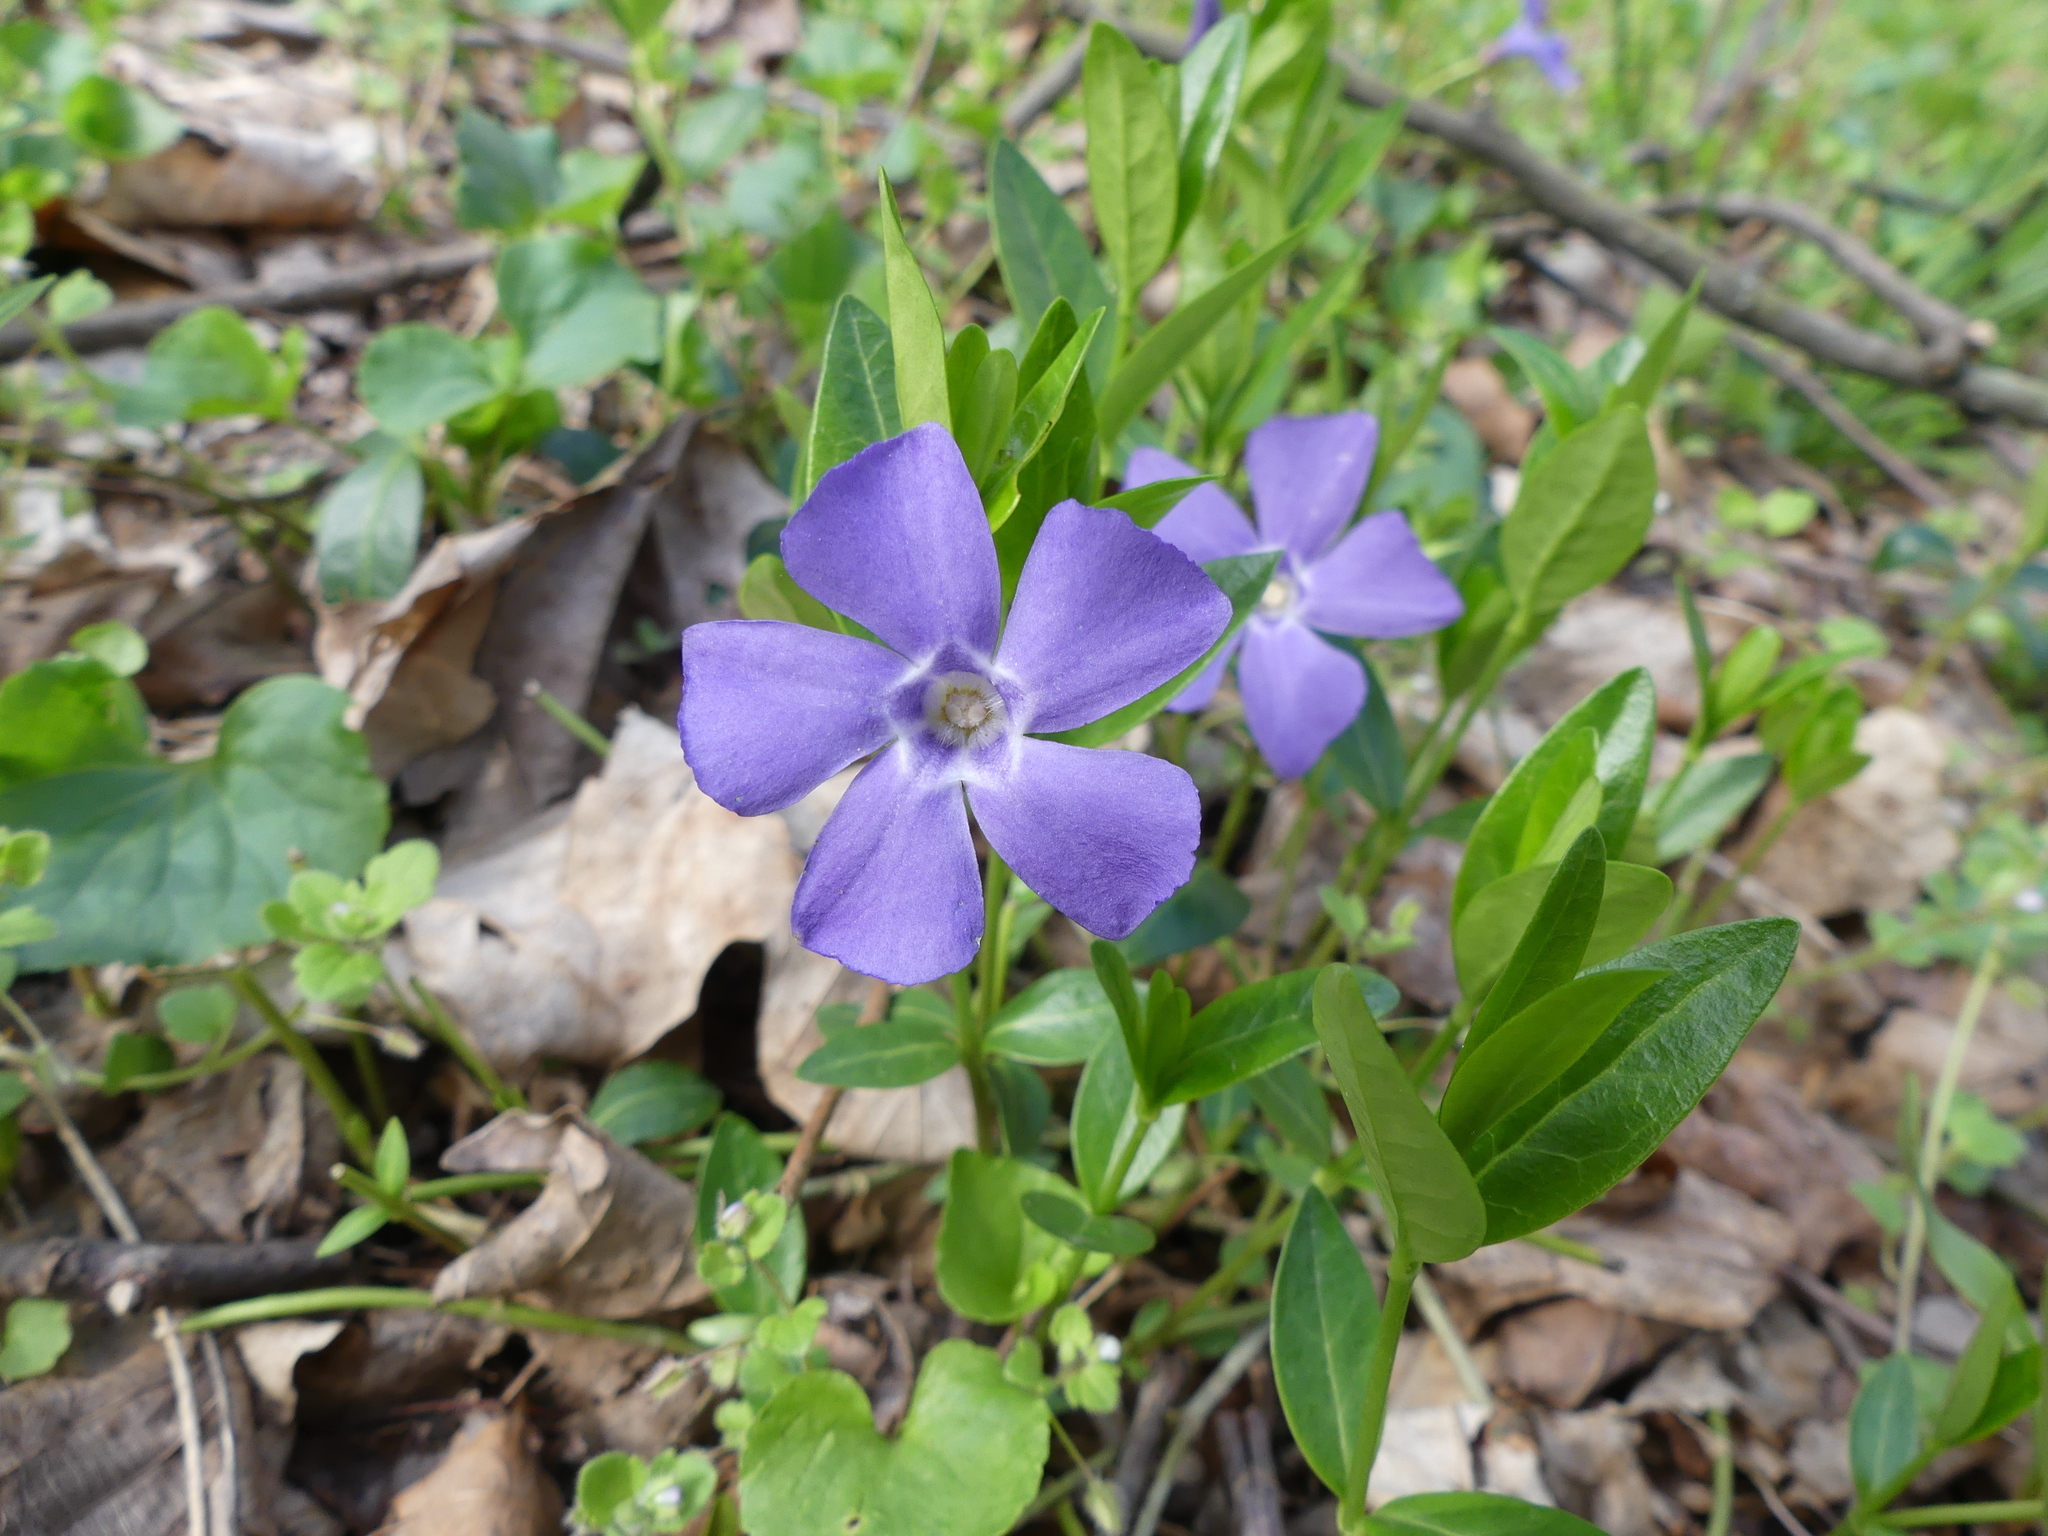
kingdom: Plantae
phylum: Tracheophyta
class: Magnoliopsida
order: Gentianales
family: Apocynaceae
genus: Vinca
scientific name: Vinca minor
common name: Lesser periwinkle
